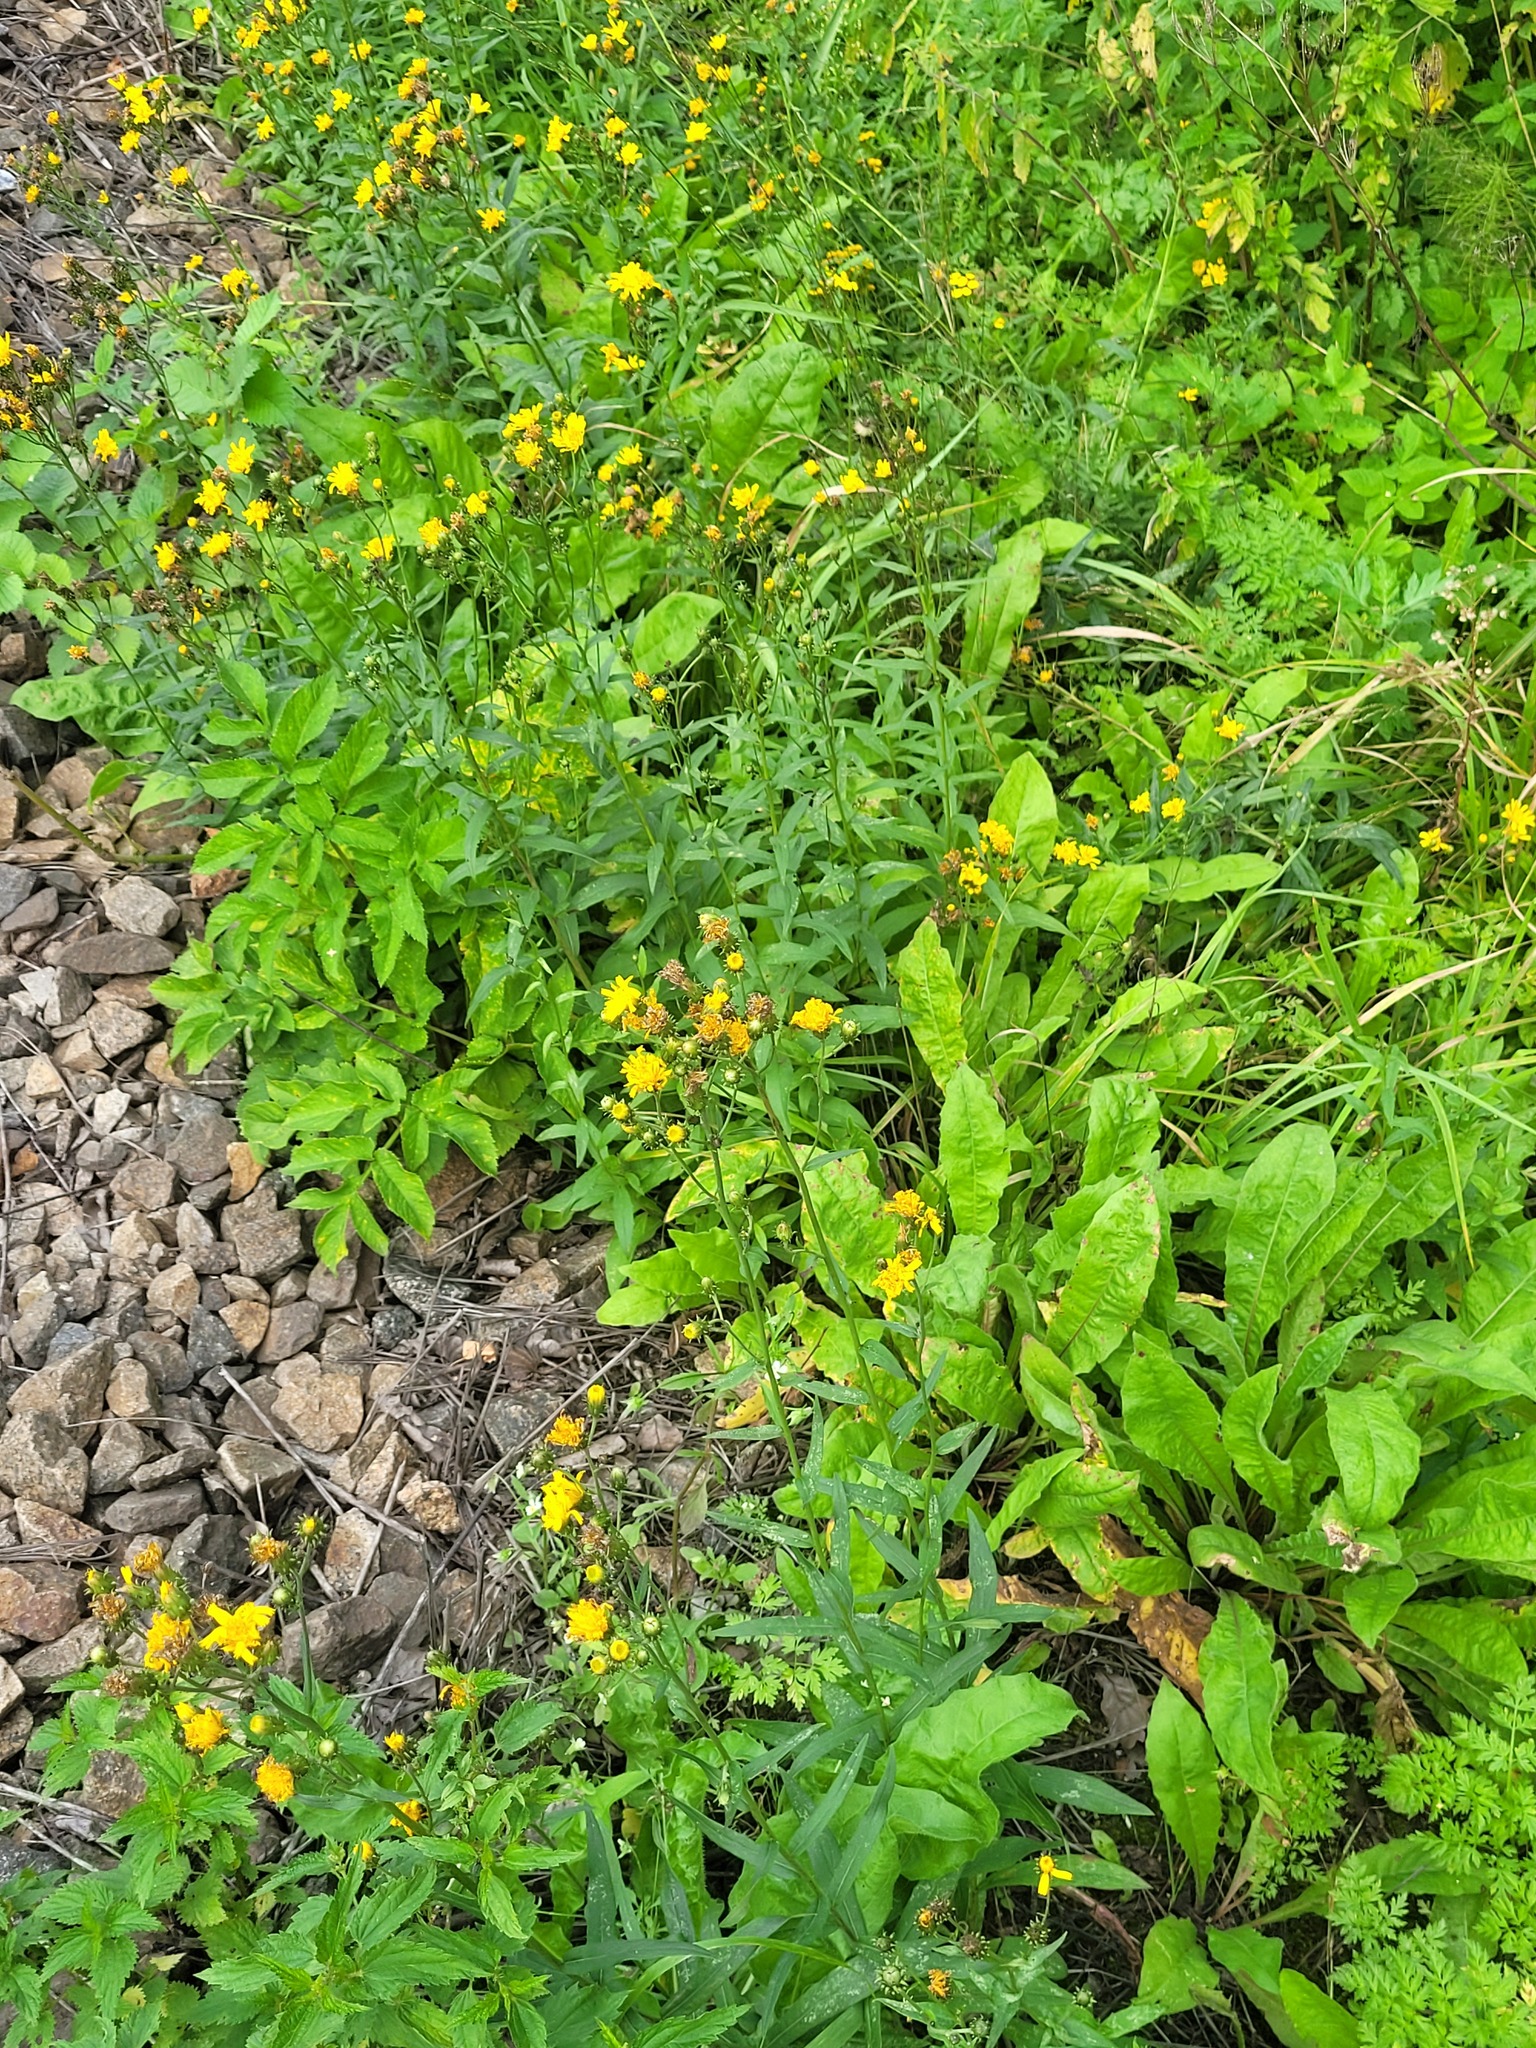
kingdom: Plantae
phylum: Tracheophyta
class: Magnoliopsida
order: Asterales
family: Asteraceae
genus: Hieracium
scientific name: Hieracium umbellatum
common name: Northern hawkweed
